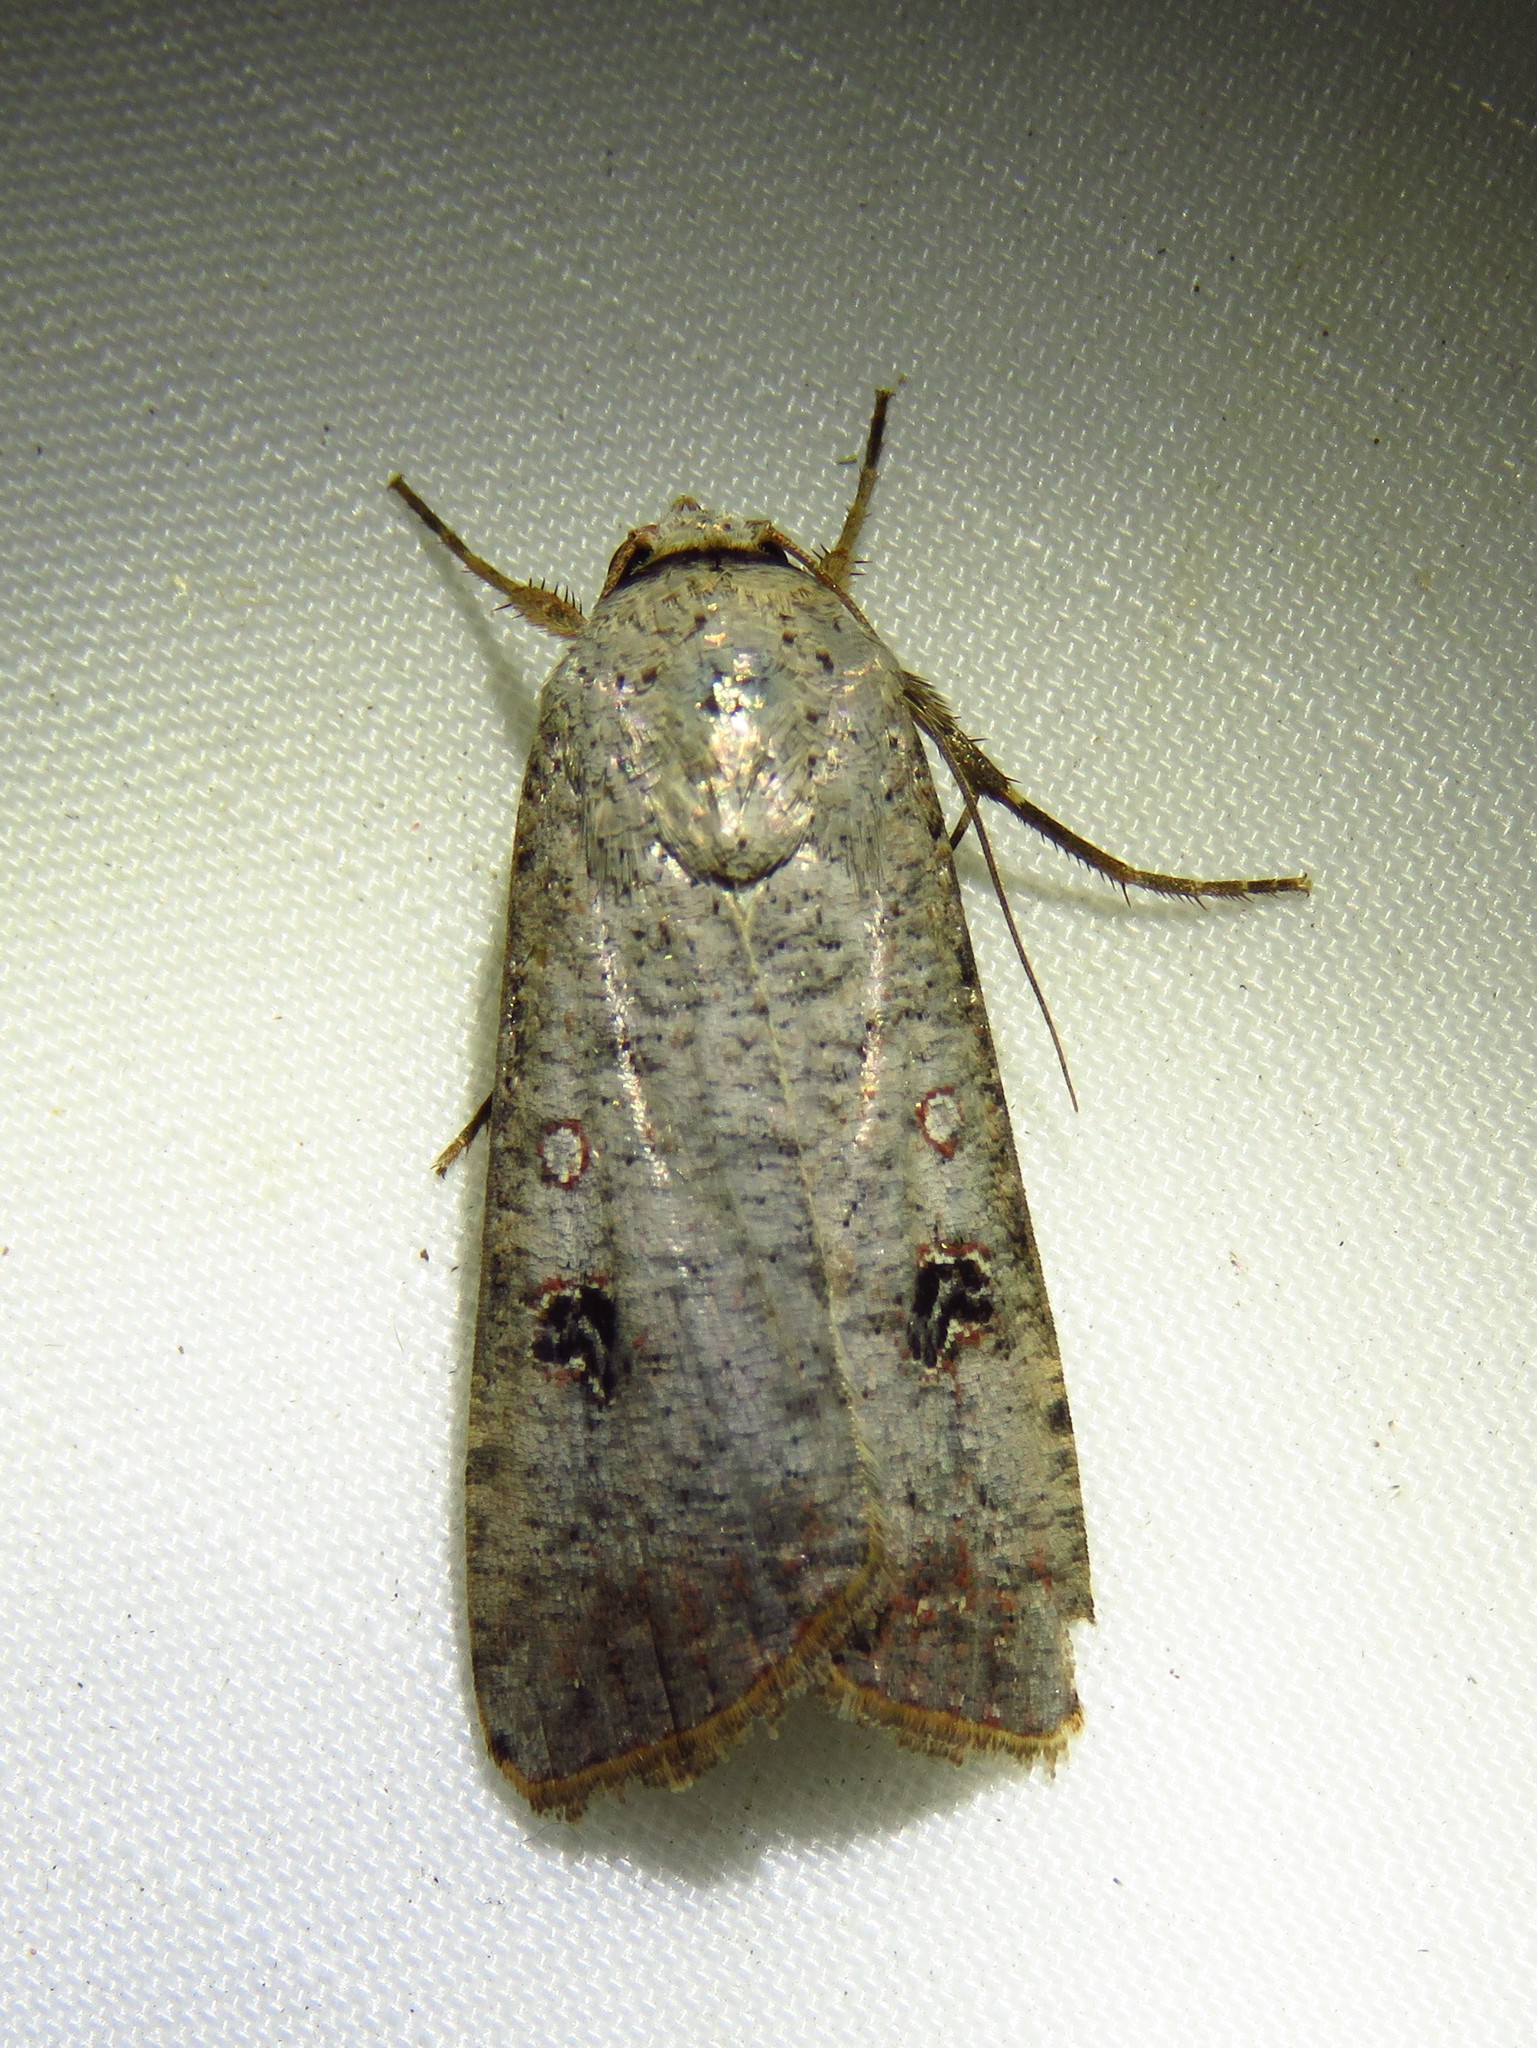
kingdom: Animalia
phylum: Arthropoda
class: Insecta
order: Lepidoptera
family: Noctuidae
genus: Anicla
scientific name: Anicla infecta
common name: Green cutworm
